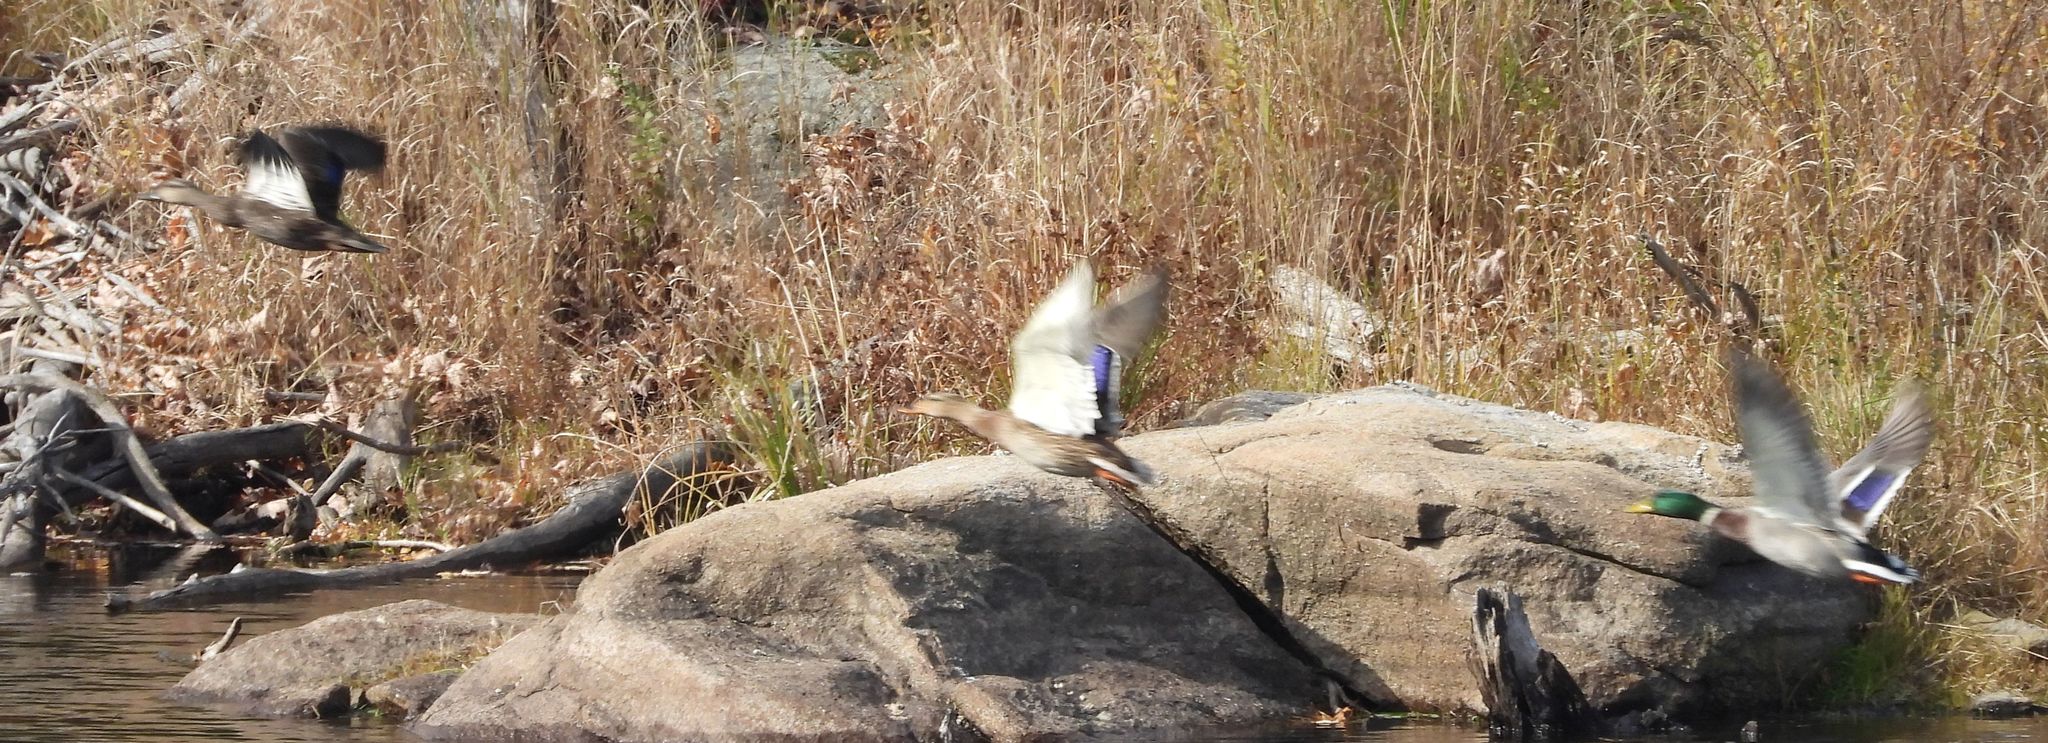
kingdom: Animalia
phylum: Chordata
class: Aves
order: Anseriformes
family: Anatidae
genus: Anas
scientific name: Anas platyrhynchos
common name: Mallard
